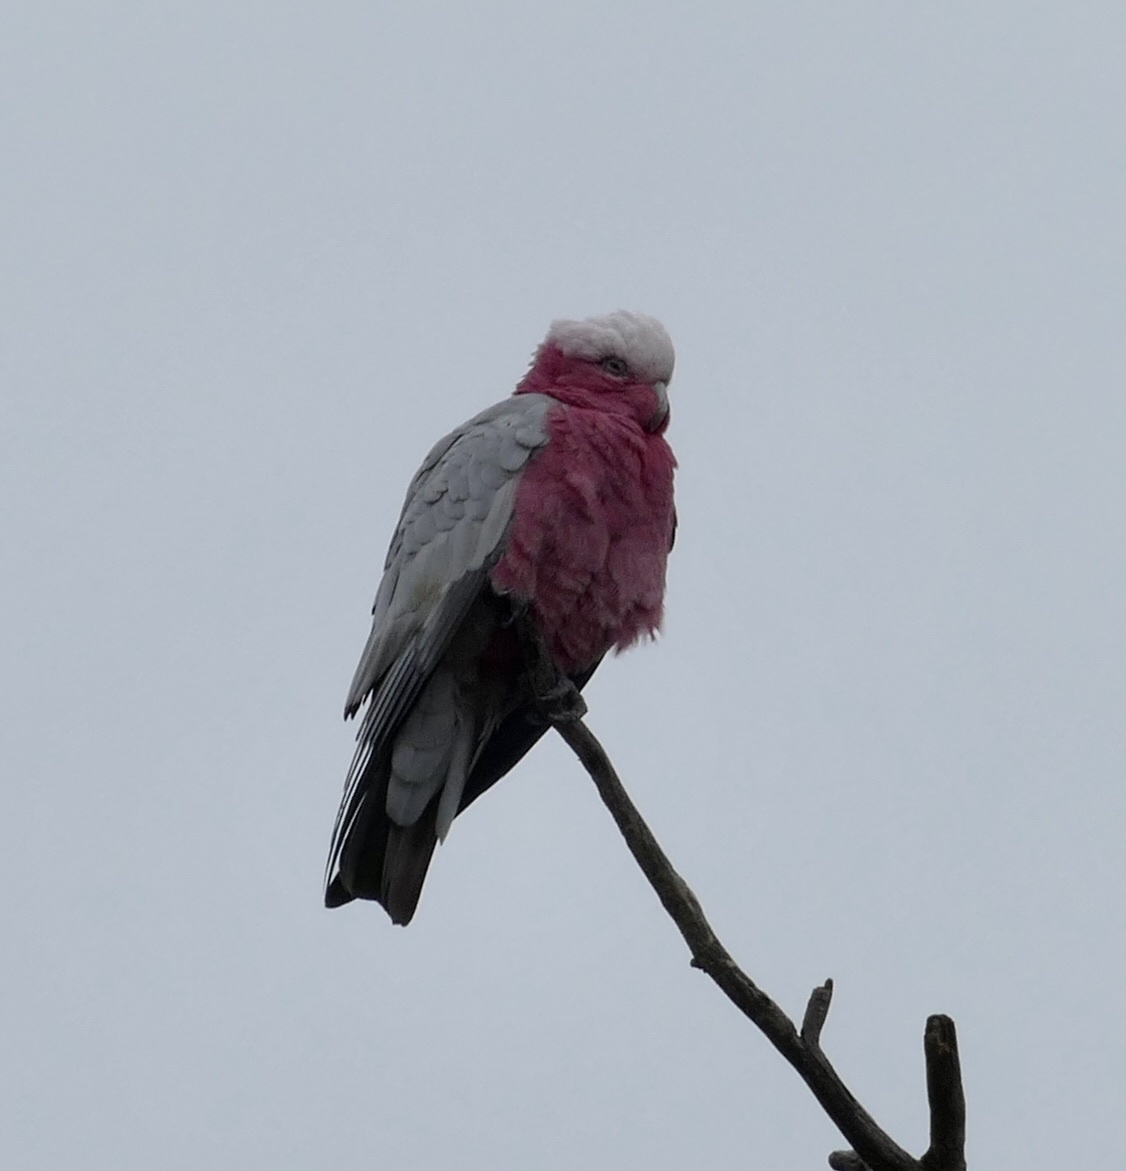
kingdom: Animalia
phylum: Chordata
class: Aves
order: Psittaciformes
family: Psittacidae
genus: Eolophus
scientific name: Eolophus roseicapilla
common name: Galah
